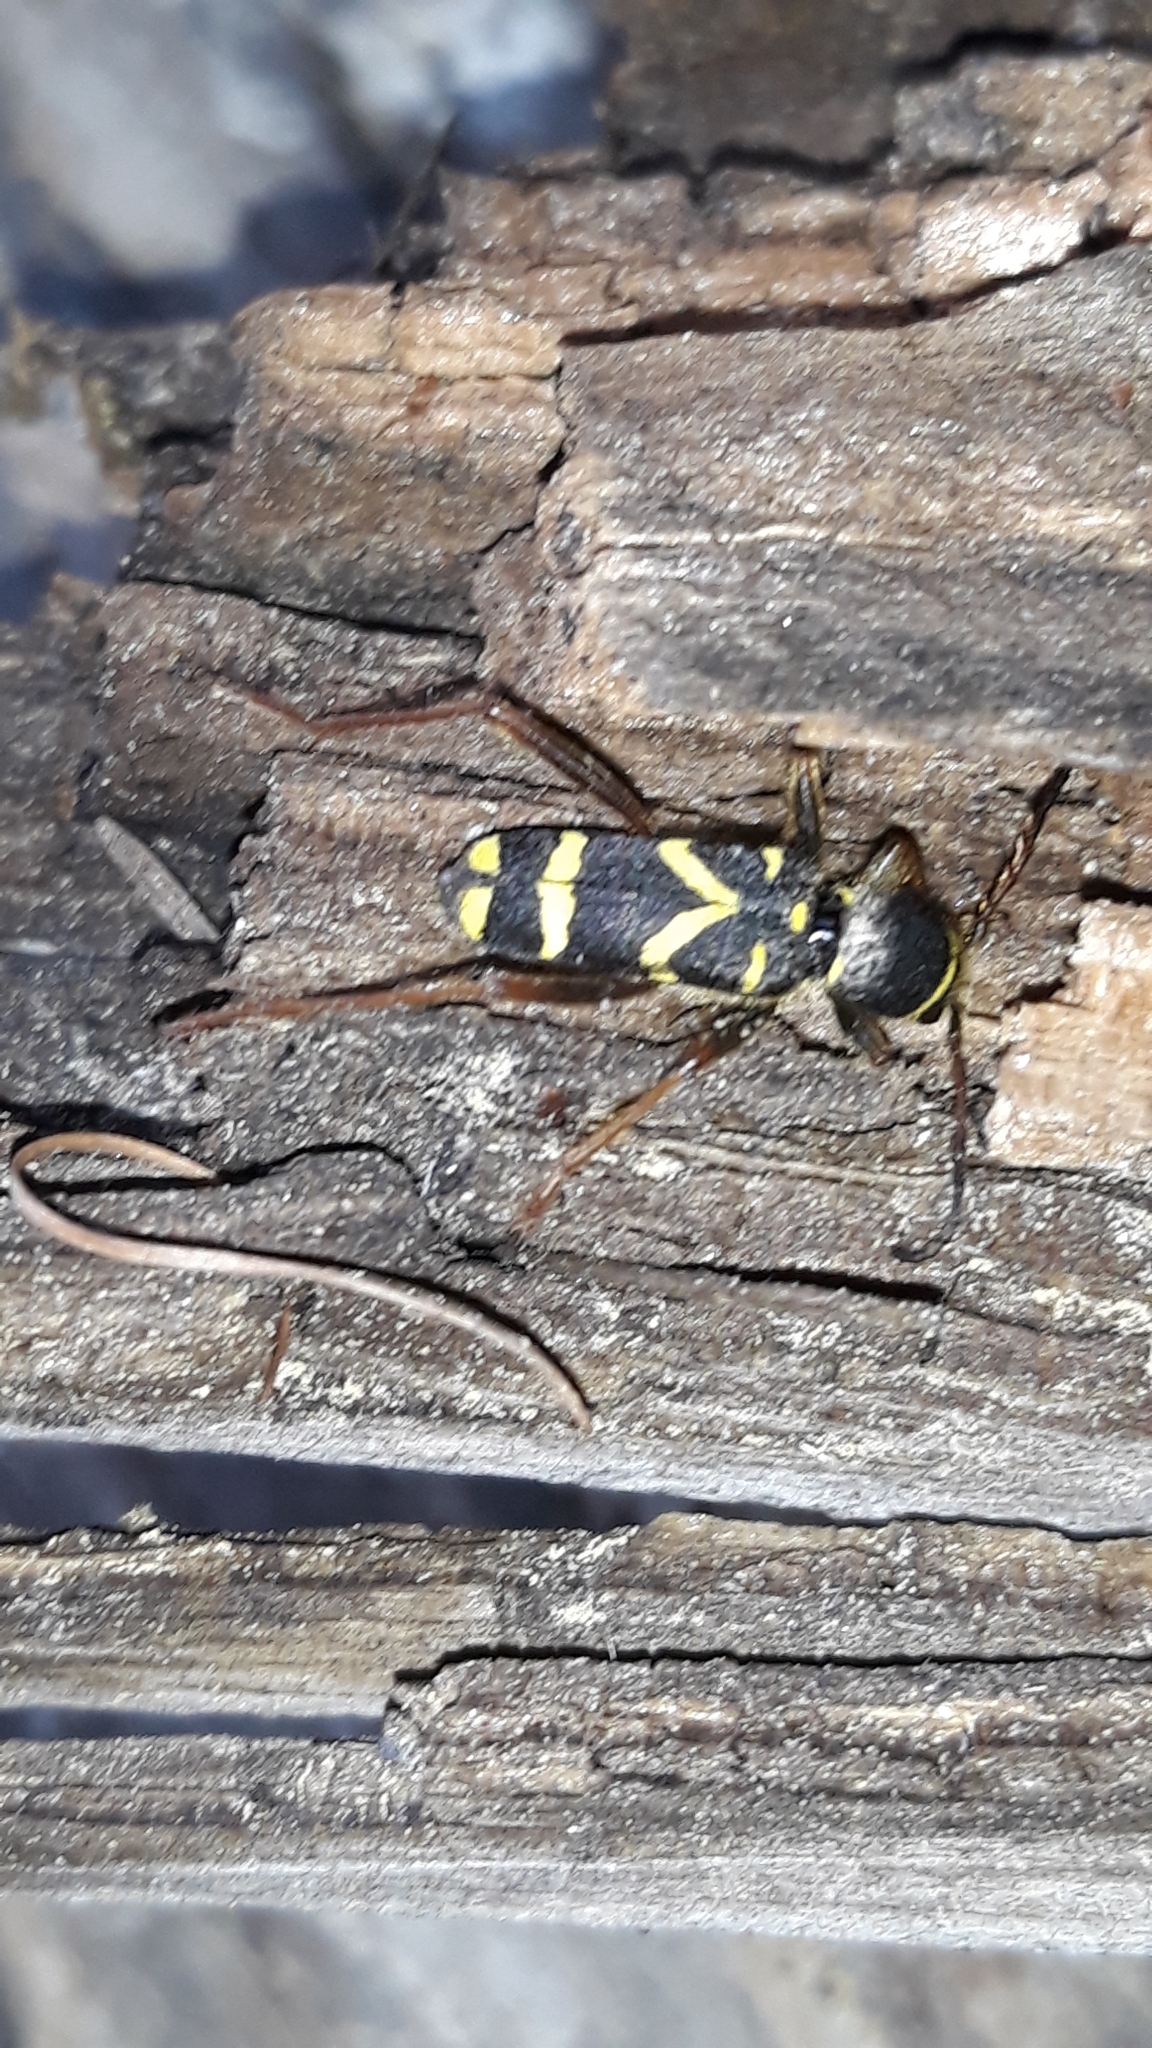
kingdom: Animalia
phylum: Arthropoda
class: Insecta
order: Coleoptera
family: Cerambycidae
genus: Clytus
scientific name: Clytus arietis
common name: Wasp beetle
